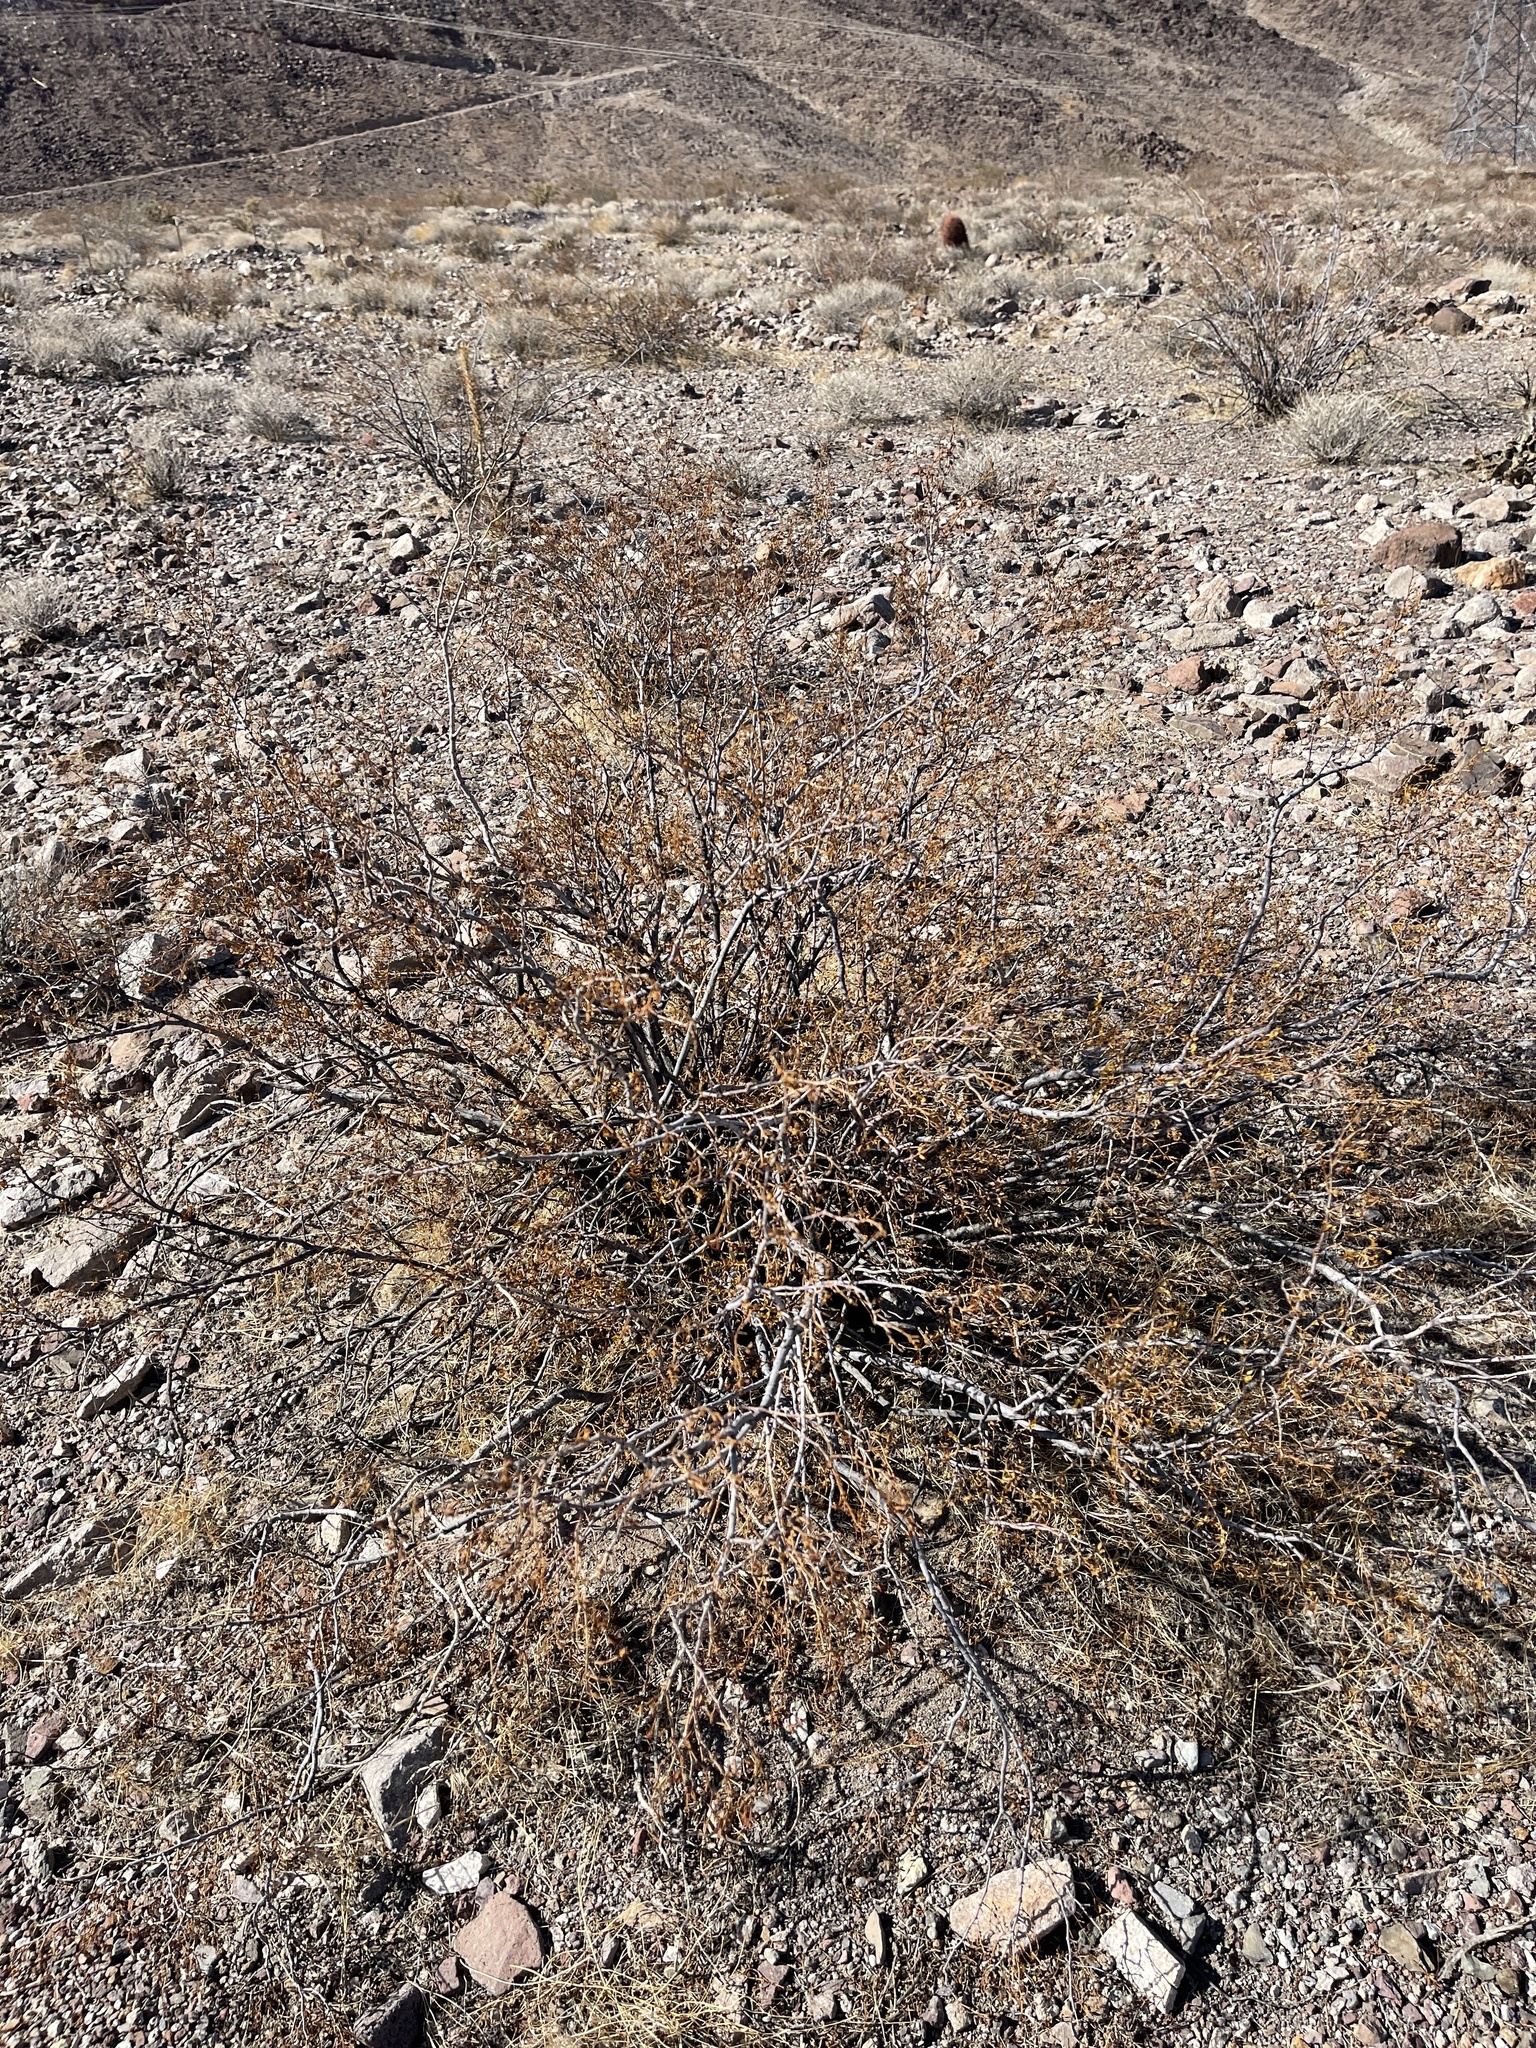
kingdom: Plantae
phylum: Tracheophyta
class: Magnoliopsida
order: Zygophyllales
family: Zygophyllaceae
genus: Larrea
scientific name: Larrea tridentata
